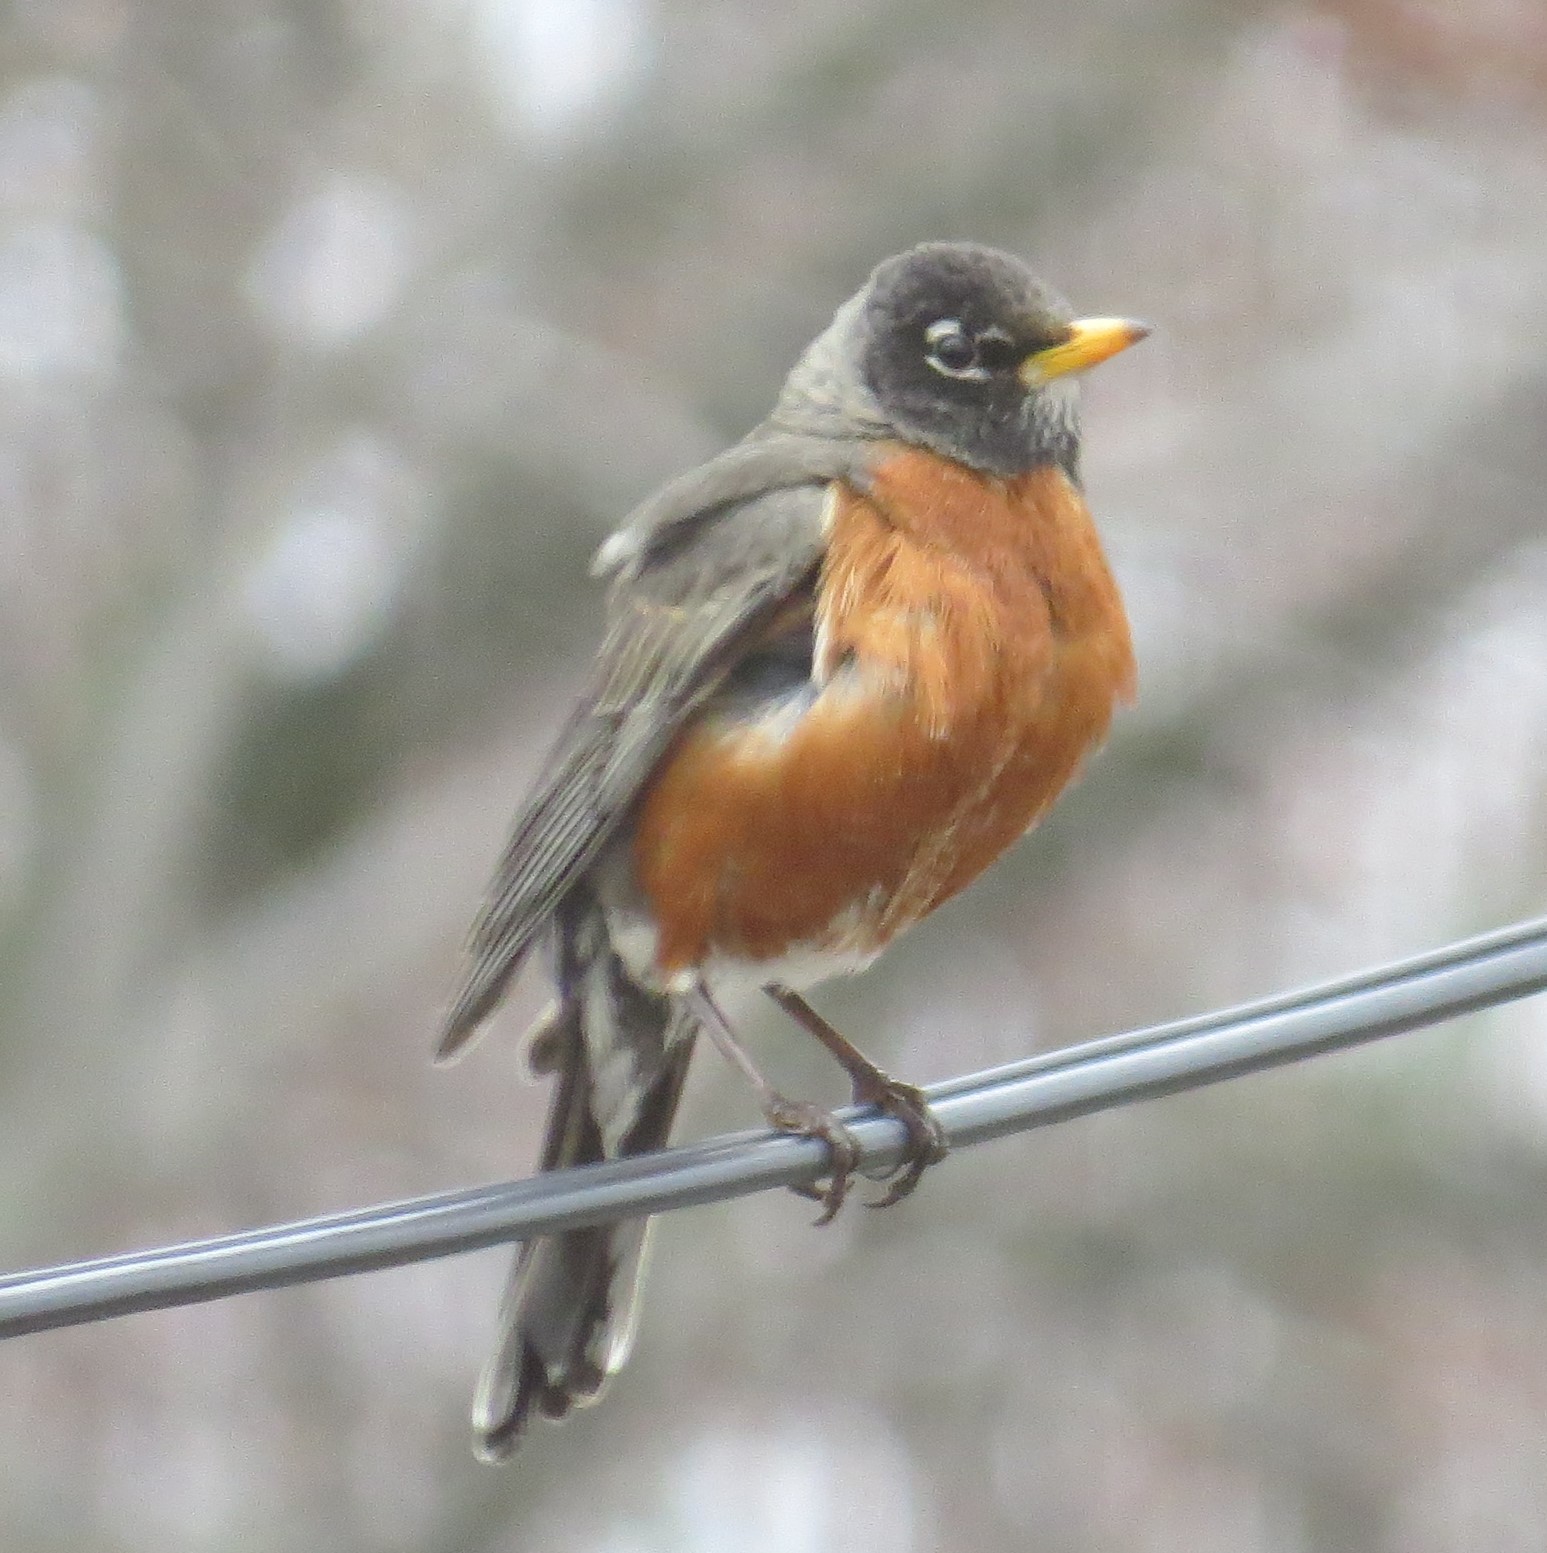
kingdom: Animalia
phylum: Chordata
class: Aves
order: Passeriformes
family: Turdidae
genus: Turdus
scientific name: Turdus migratorius
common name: American robin
